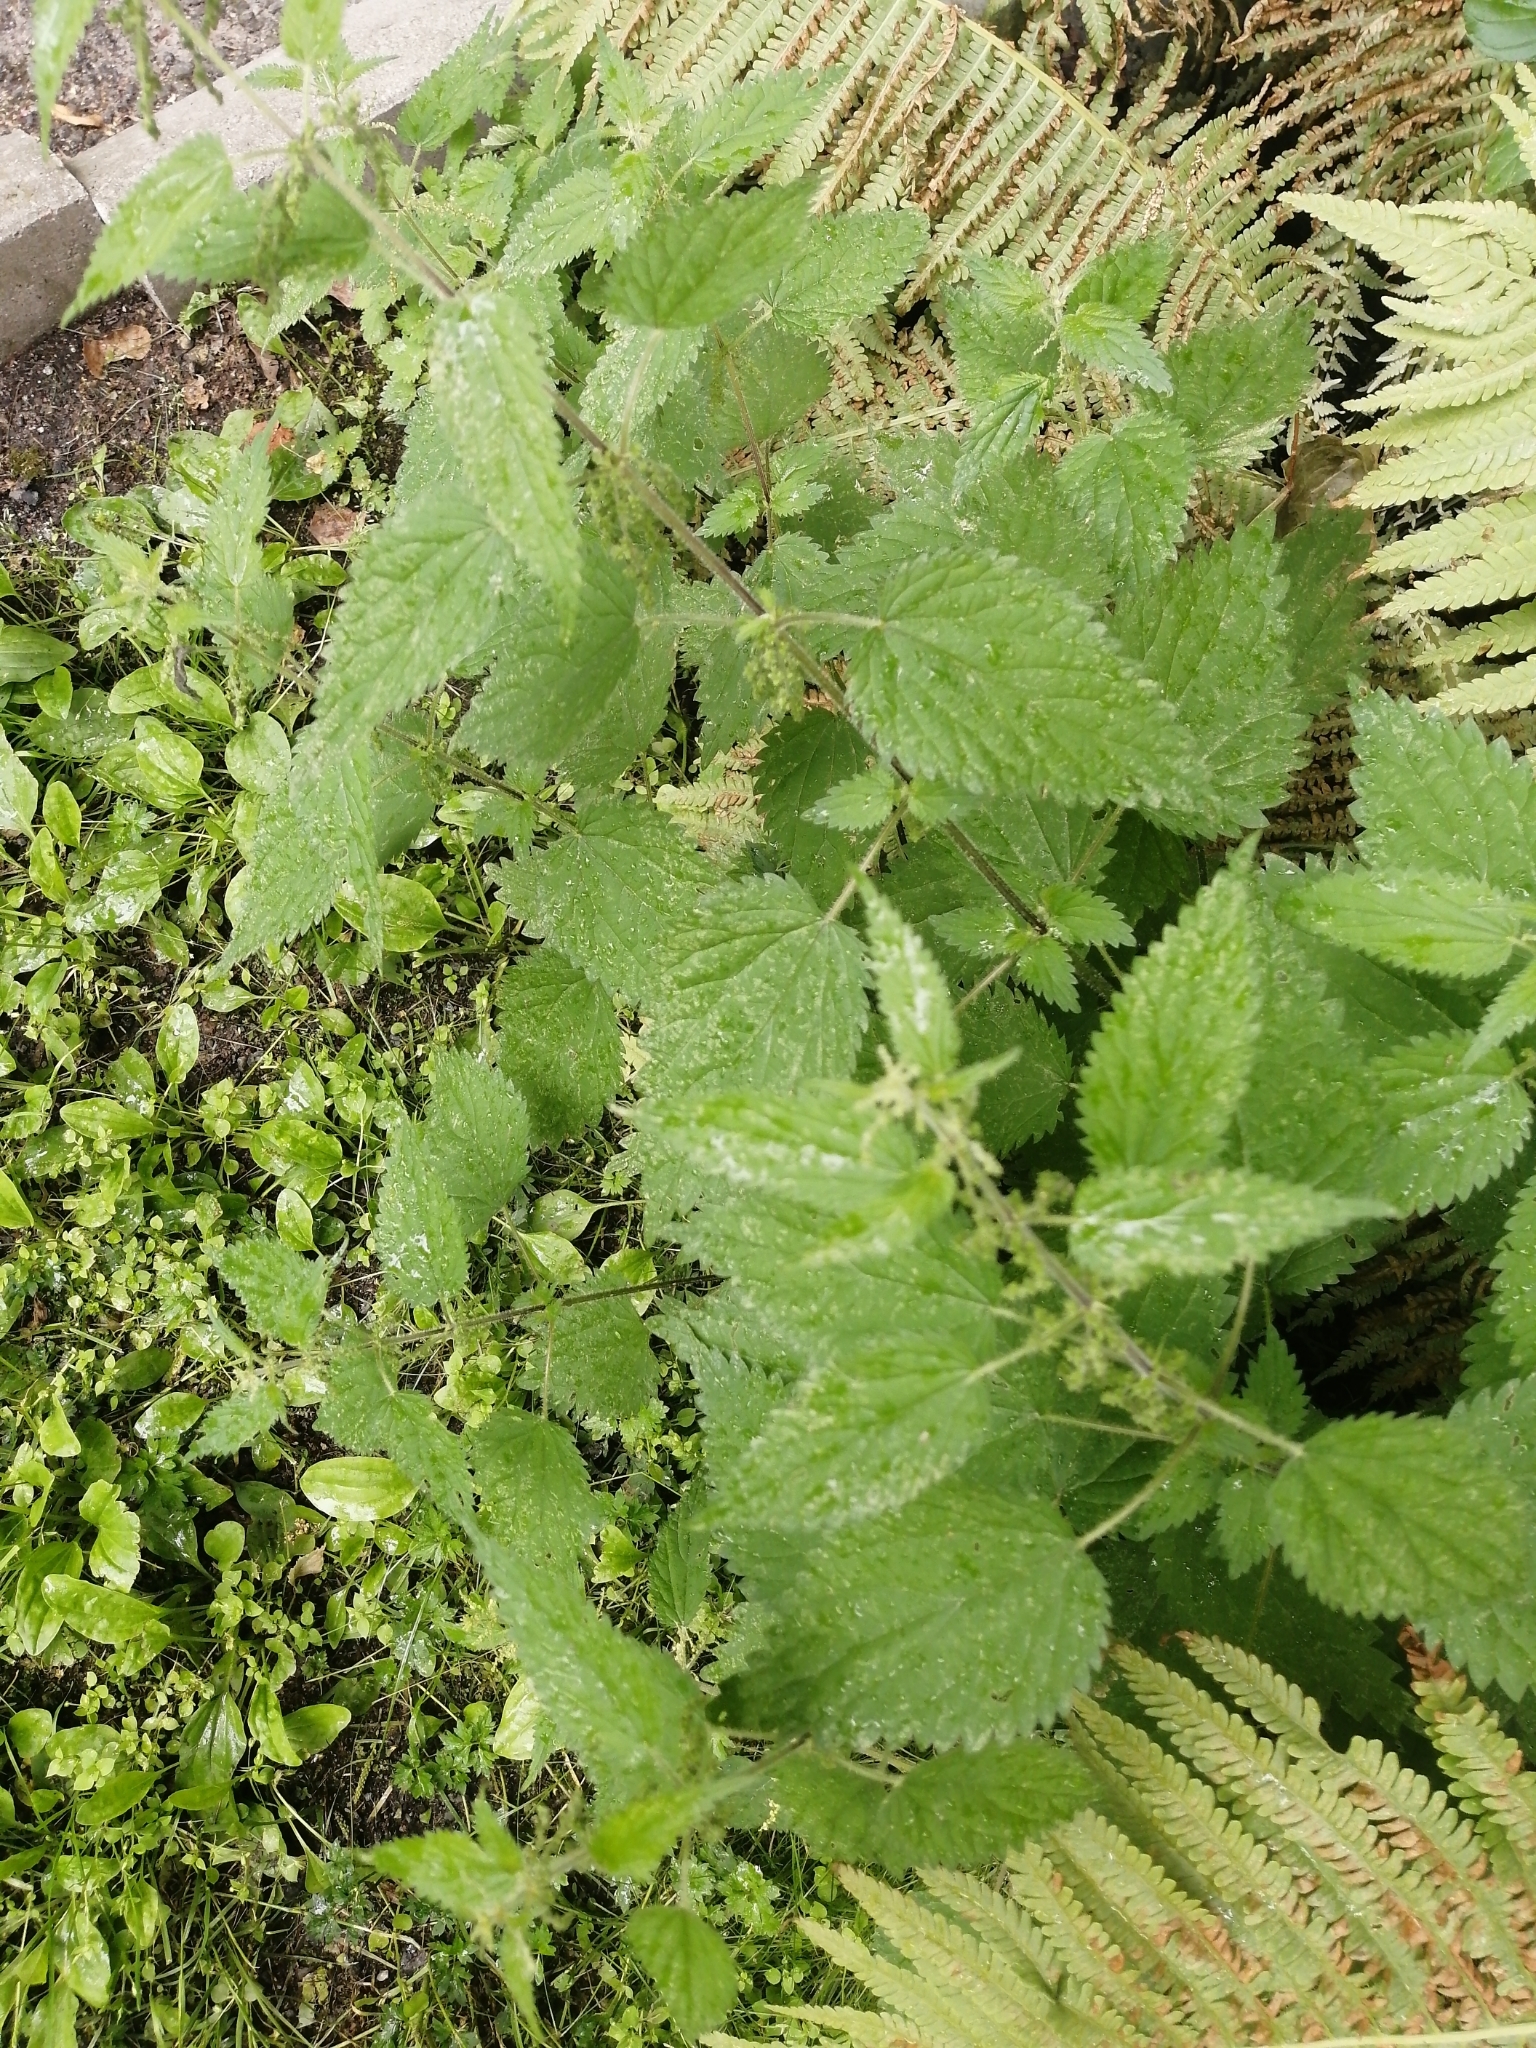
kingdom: Plantae
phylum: Tracheophyta
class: Magnoliopsida
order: Rosales
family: Urticaceae
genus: Urtica
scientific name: Urtica dioica
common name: Common nettle
